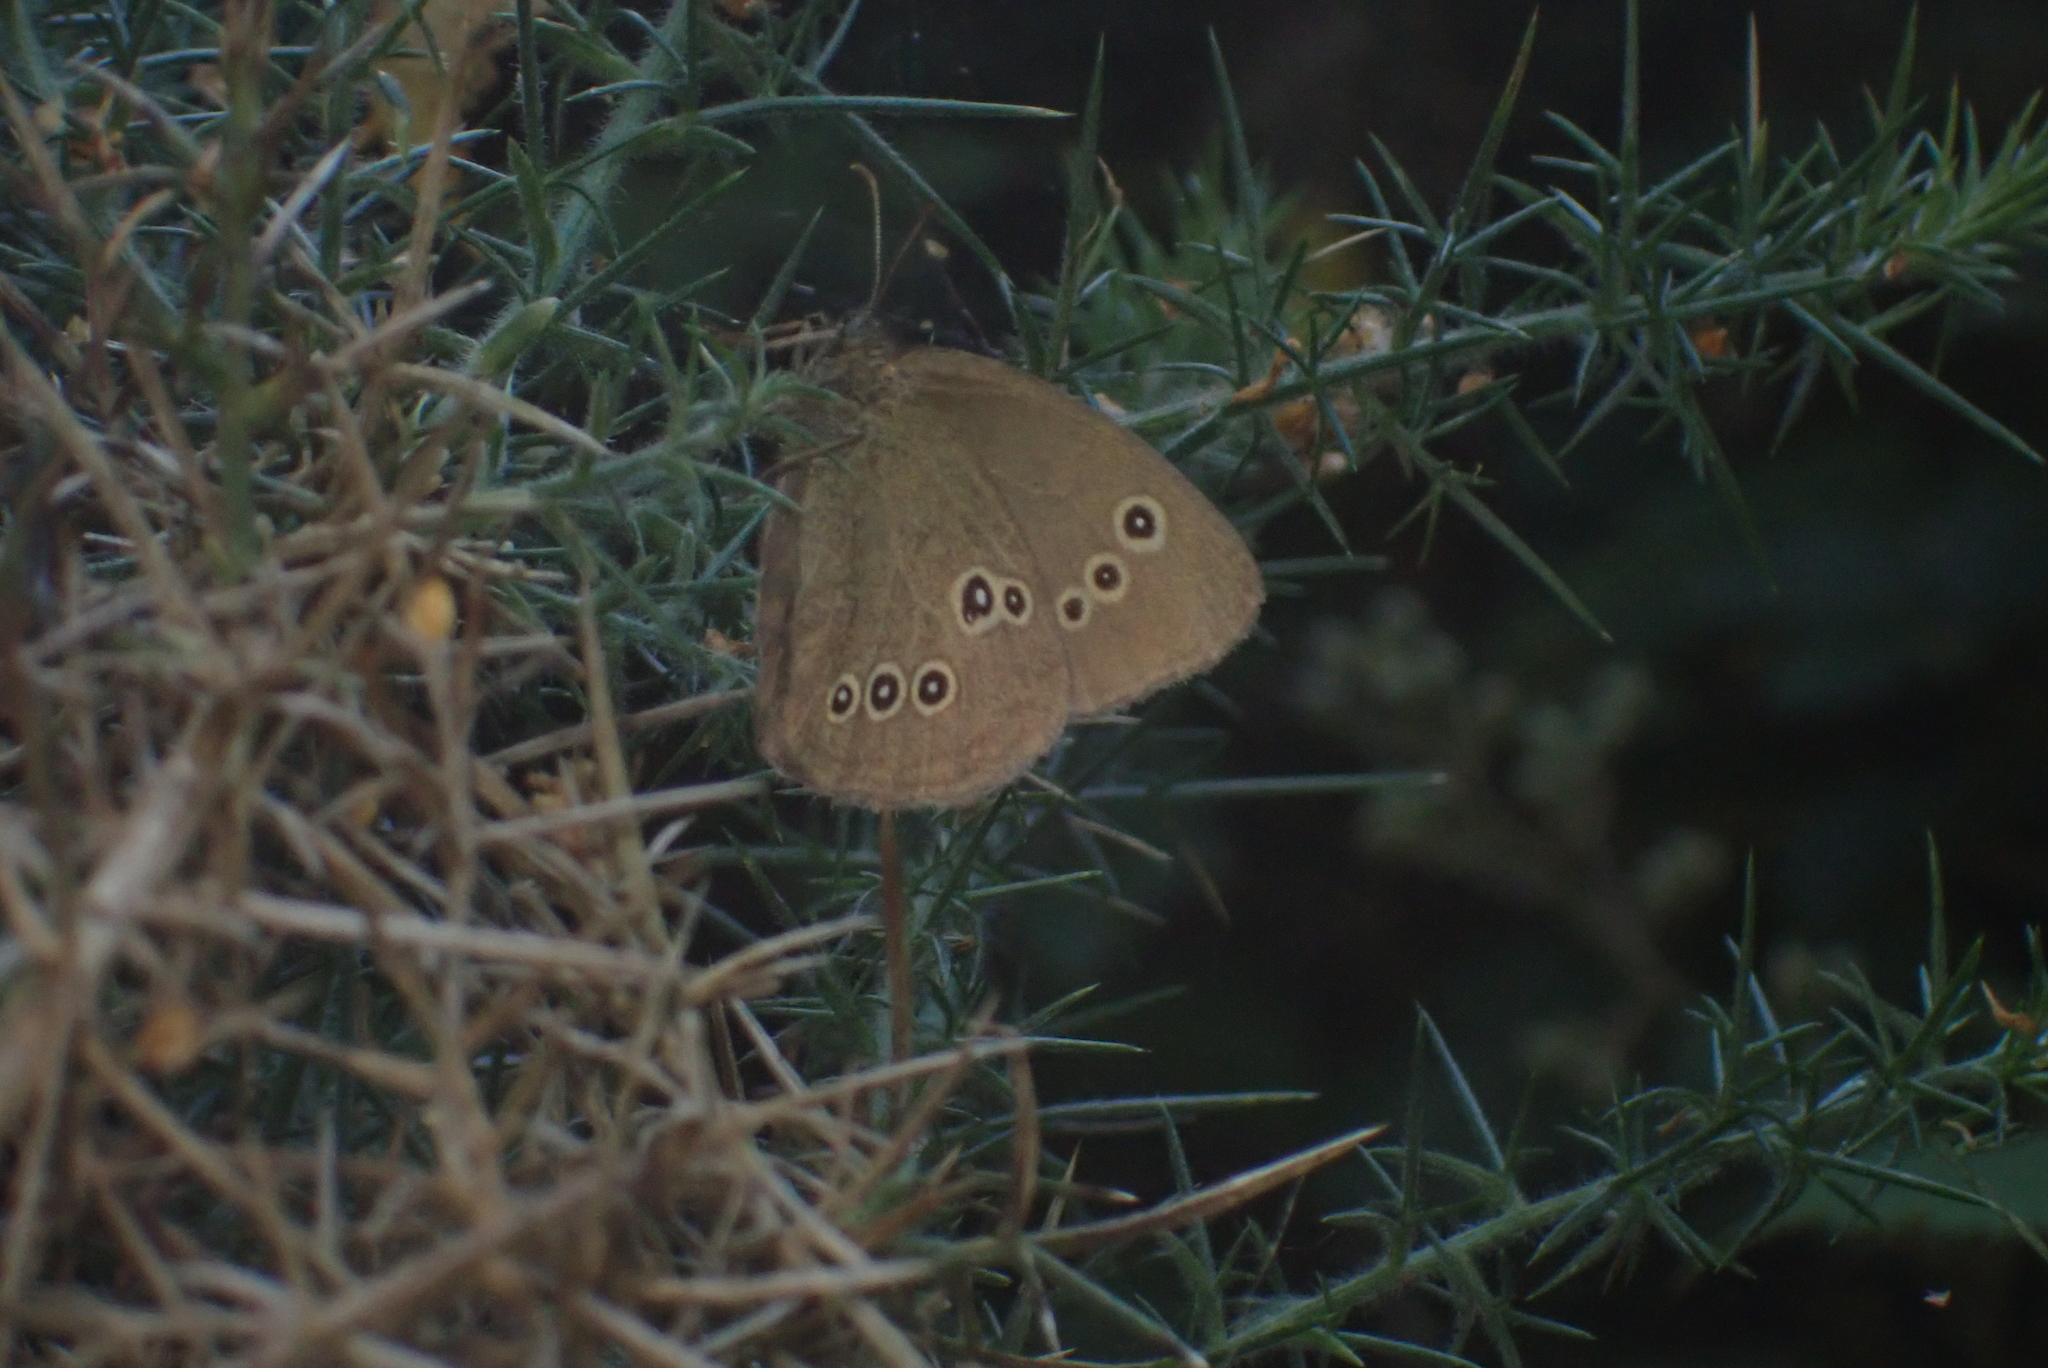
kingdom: Animalia
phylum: Arthropoda
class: Insecta
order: Lepidoptera
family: Nymphalidae
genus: Aphantopus
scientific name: Aphantopus hyperantus
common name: Ringlet
